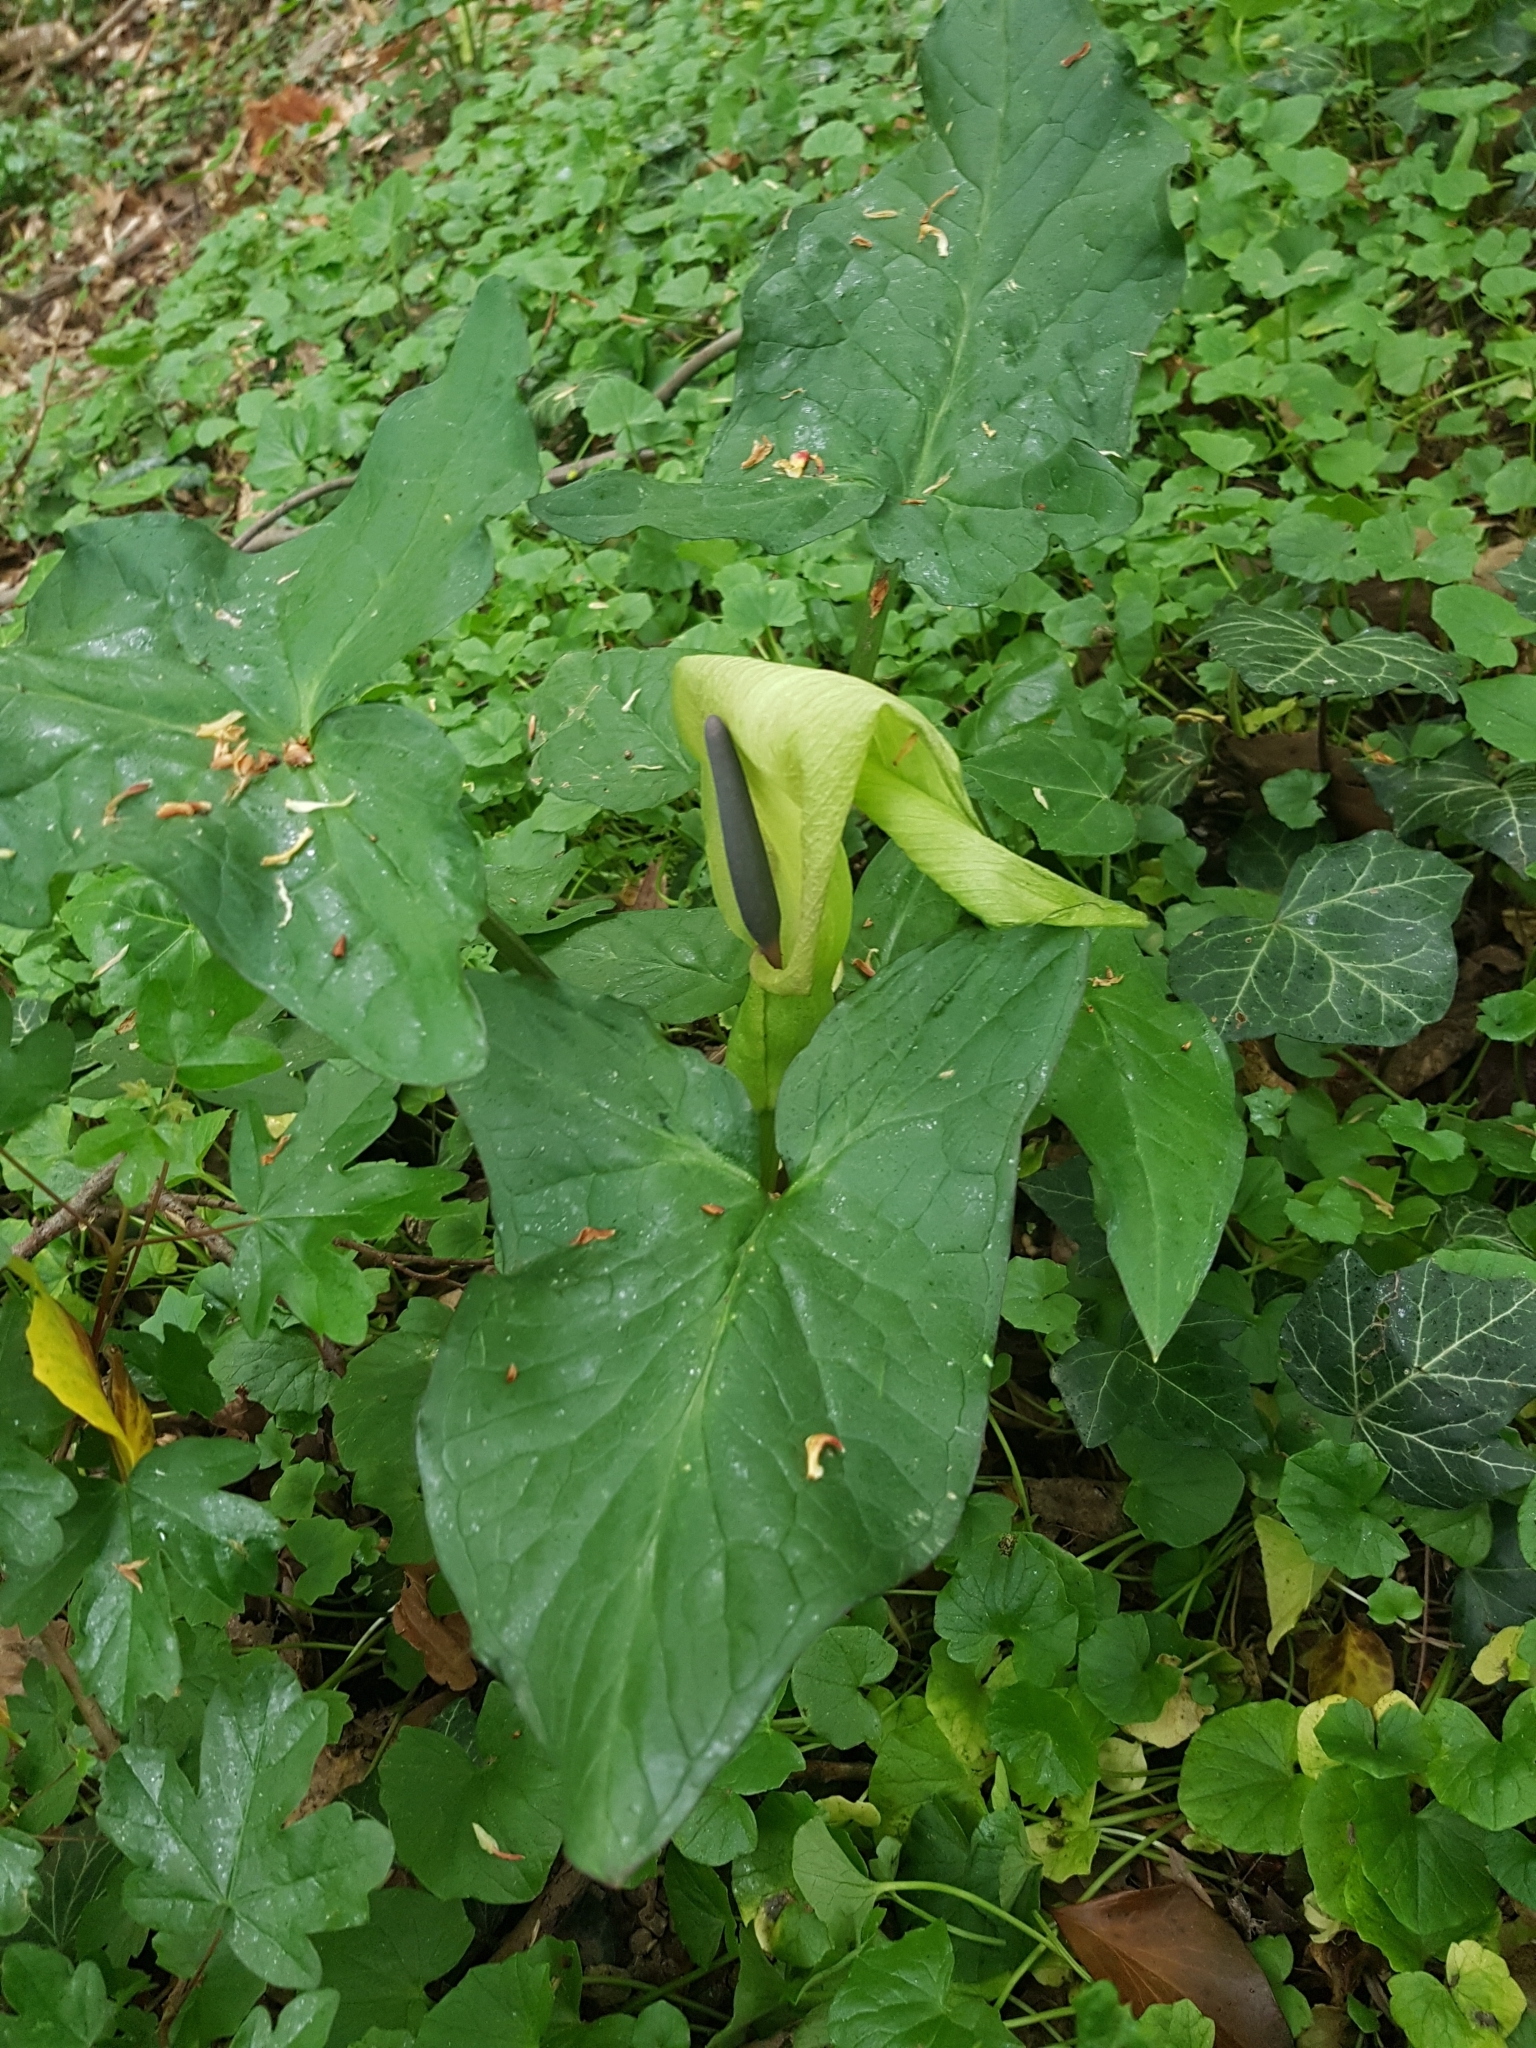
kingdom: Plantae
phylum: Tracheophyta
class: Liliopsida
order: Alismatales
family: Araceae
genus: Arum
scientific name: Arum maculatum
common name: Lords-and-ladies
